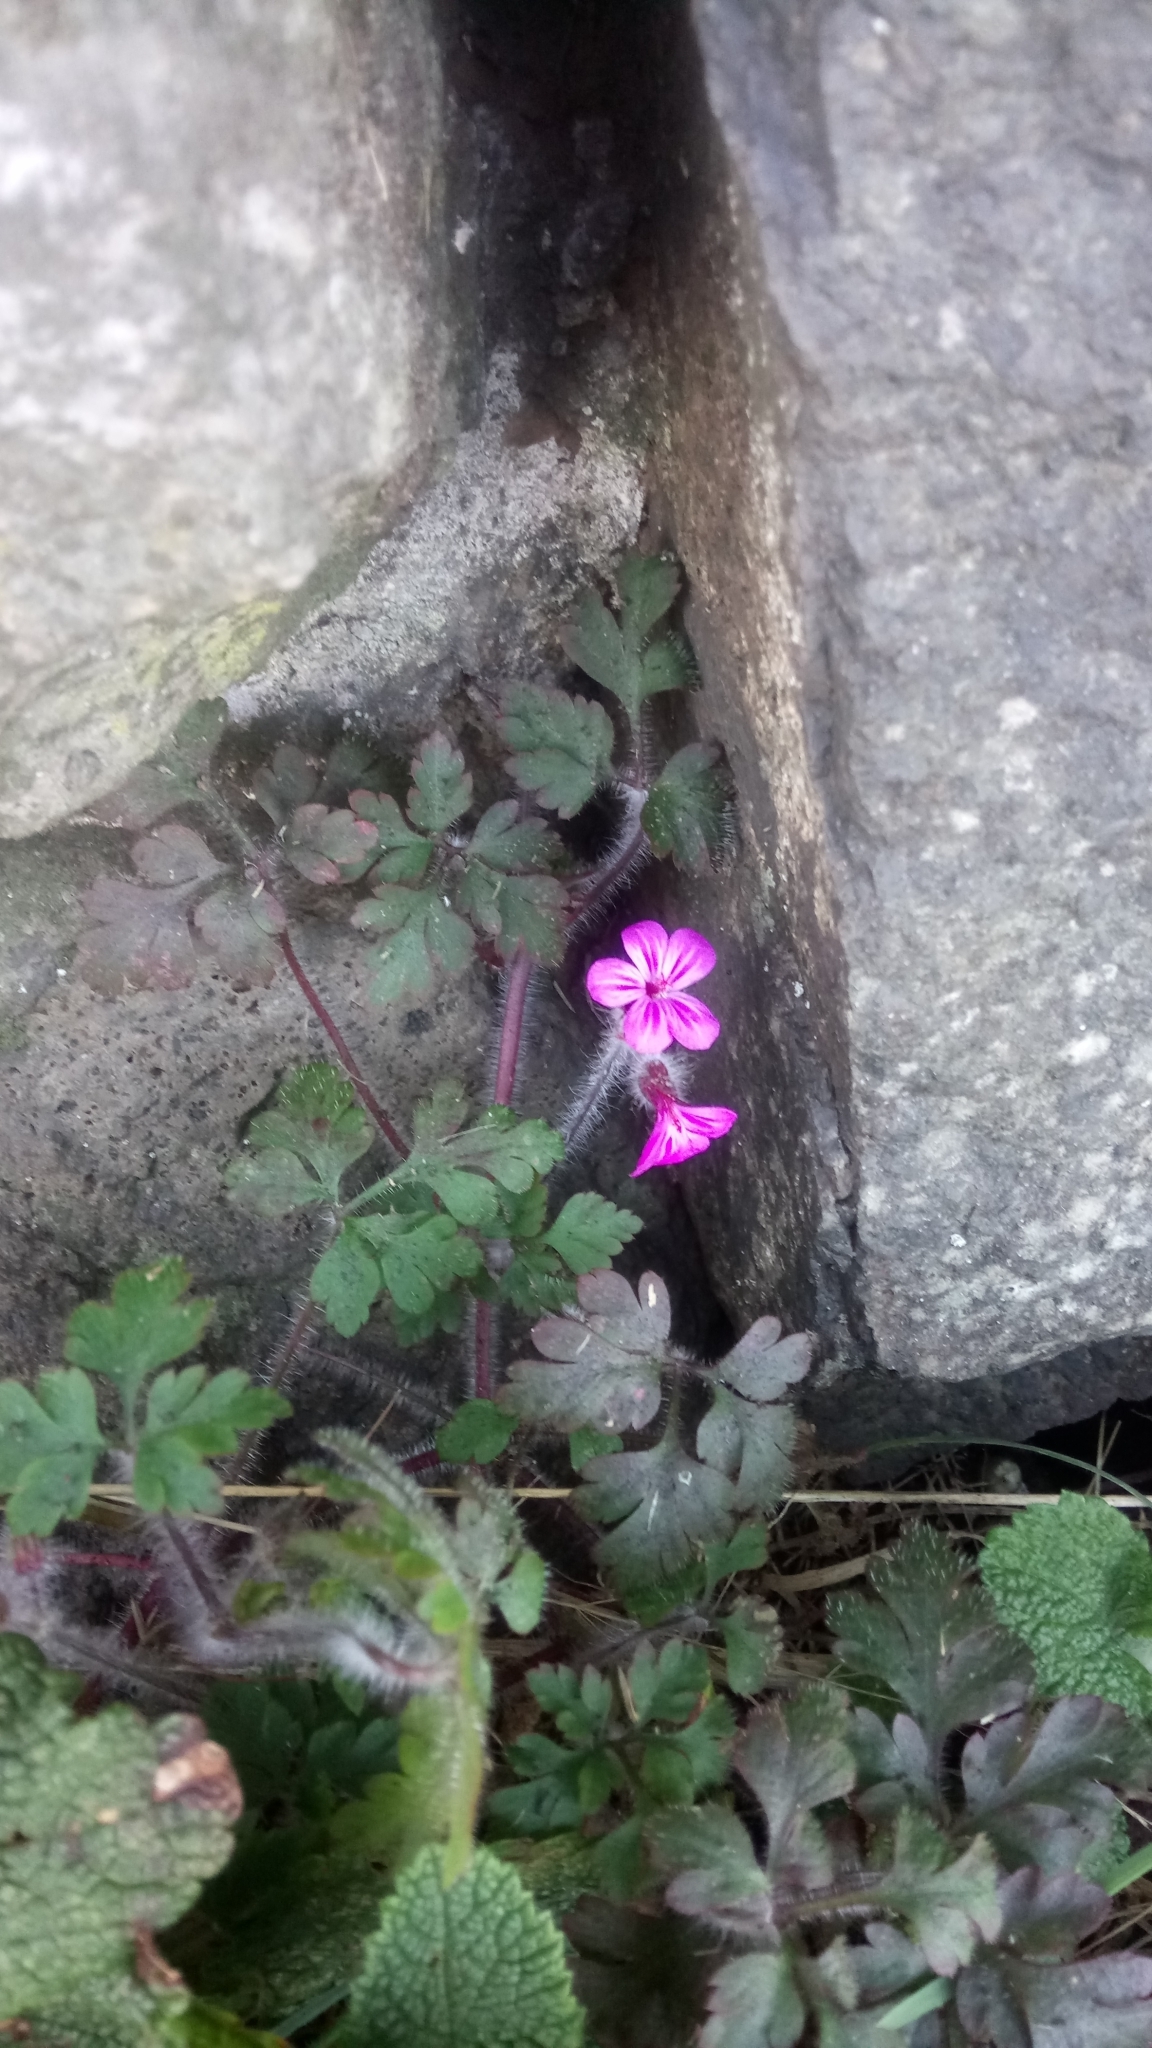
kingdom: Plantae
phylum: Tracheophyta
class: Magnoliopsida
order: Geraniales
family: Geraniaceae
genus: Geranium
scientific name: Geranium robertianum
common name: Herb-robert
